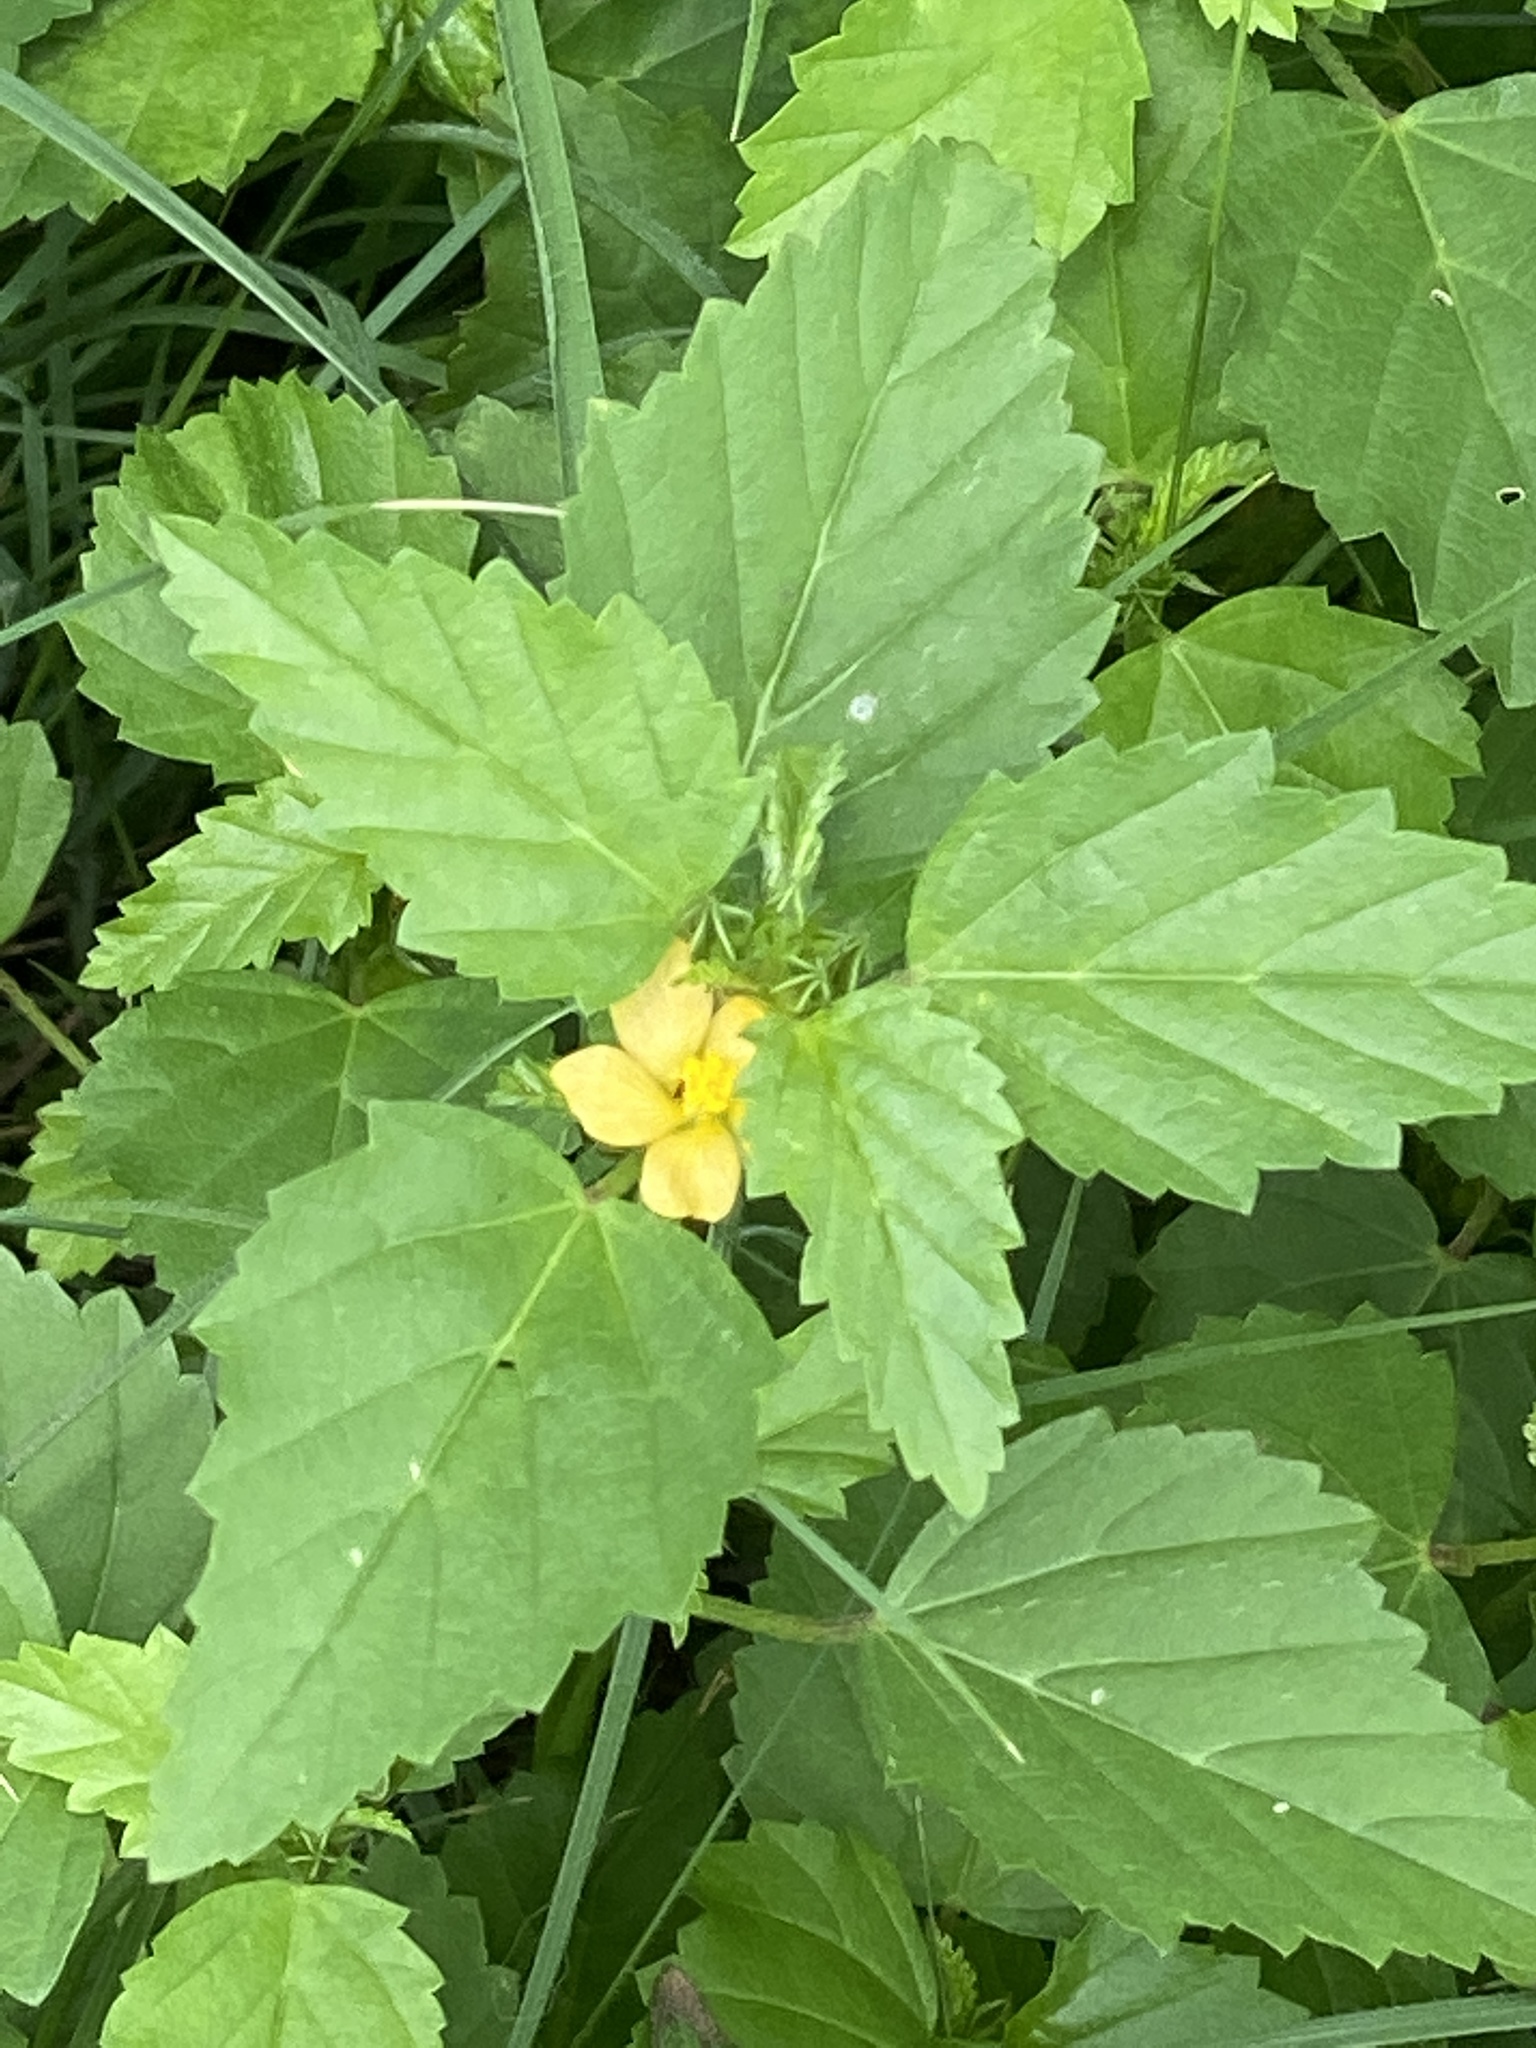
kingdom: Plantae
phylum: Tracheophyta
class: Magnoliopsida
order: Malvales
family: Malvaceae
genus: Malvastrum
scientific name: Malvastrum coromandelianum
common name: Threelobe false mallow
